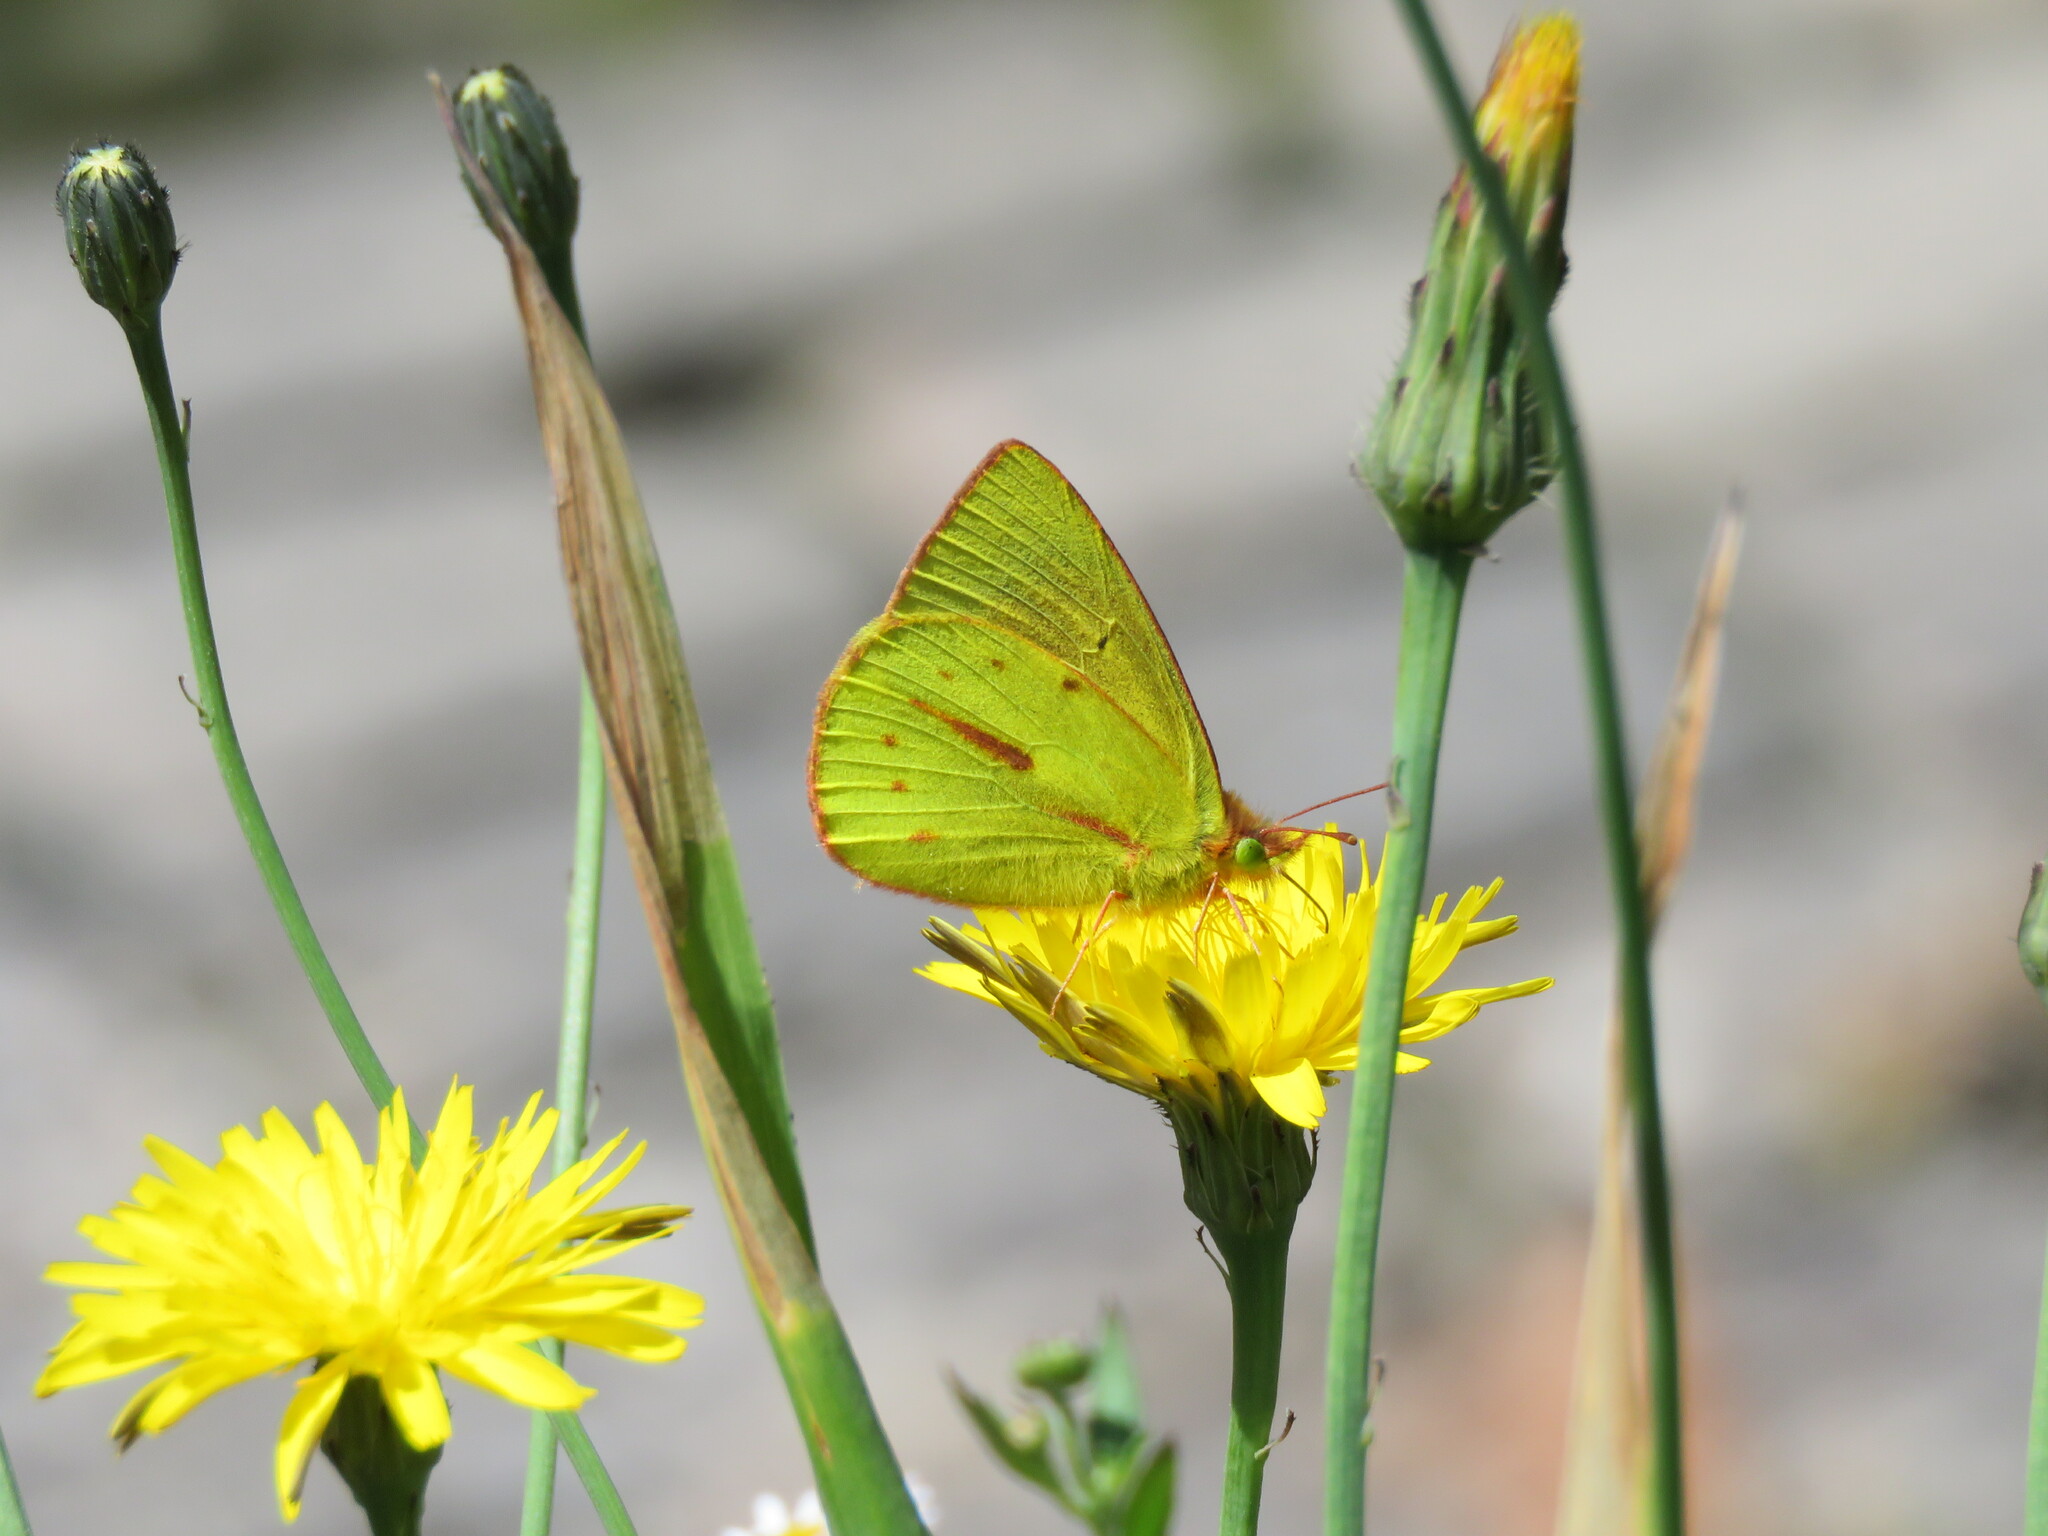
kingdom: Animalia
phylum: Arthropoda
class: Insecta
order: Lepidoptera
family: Pieridae
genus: Colias
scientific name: Colias dimera
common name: Dimera sulphur
